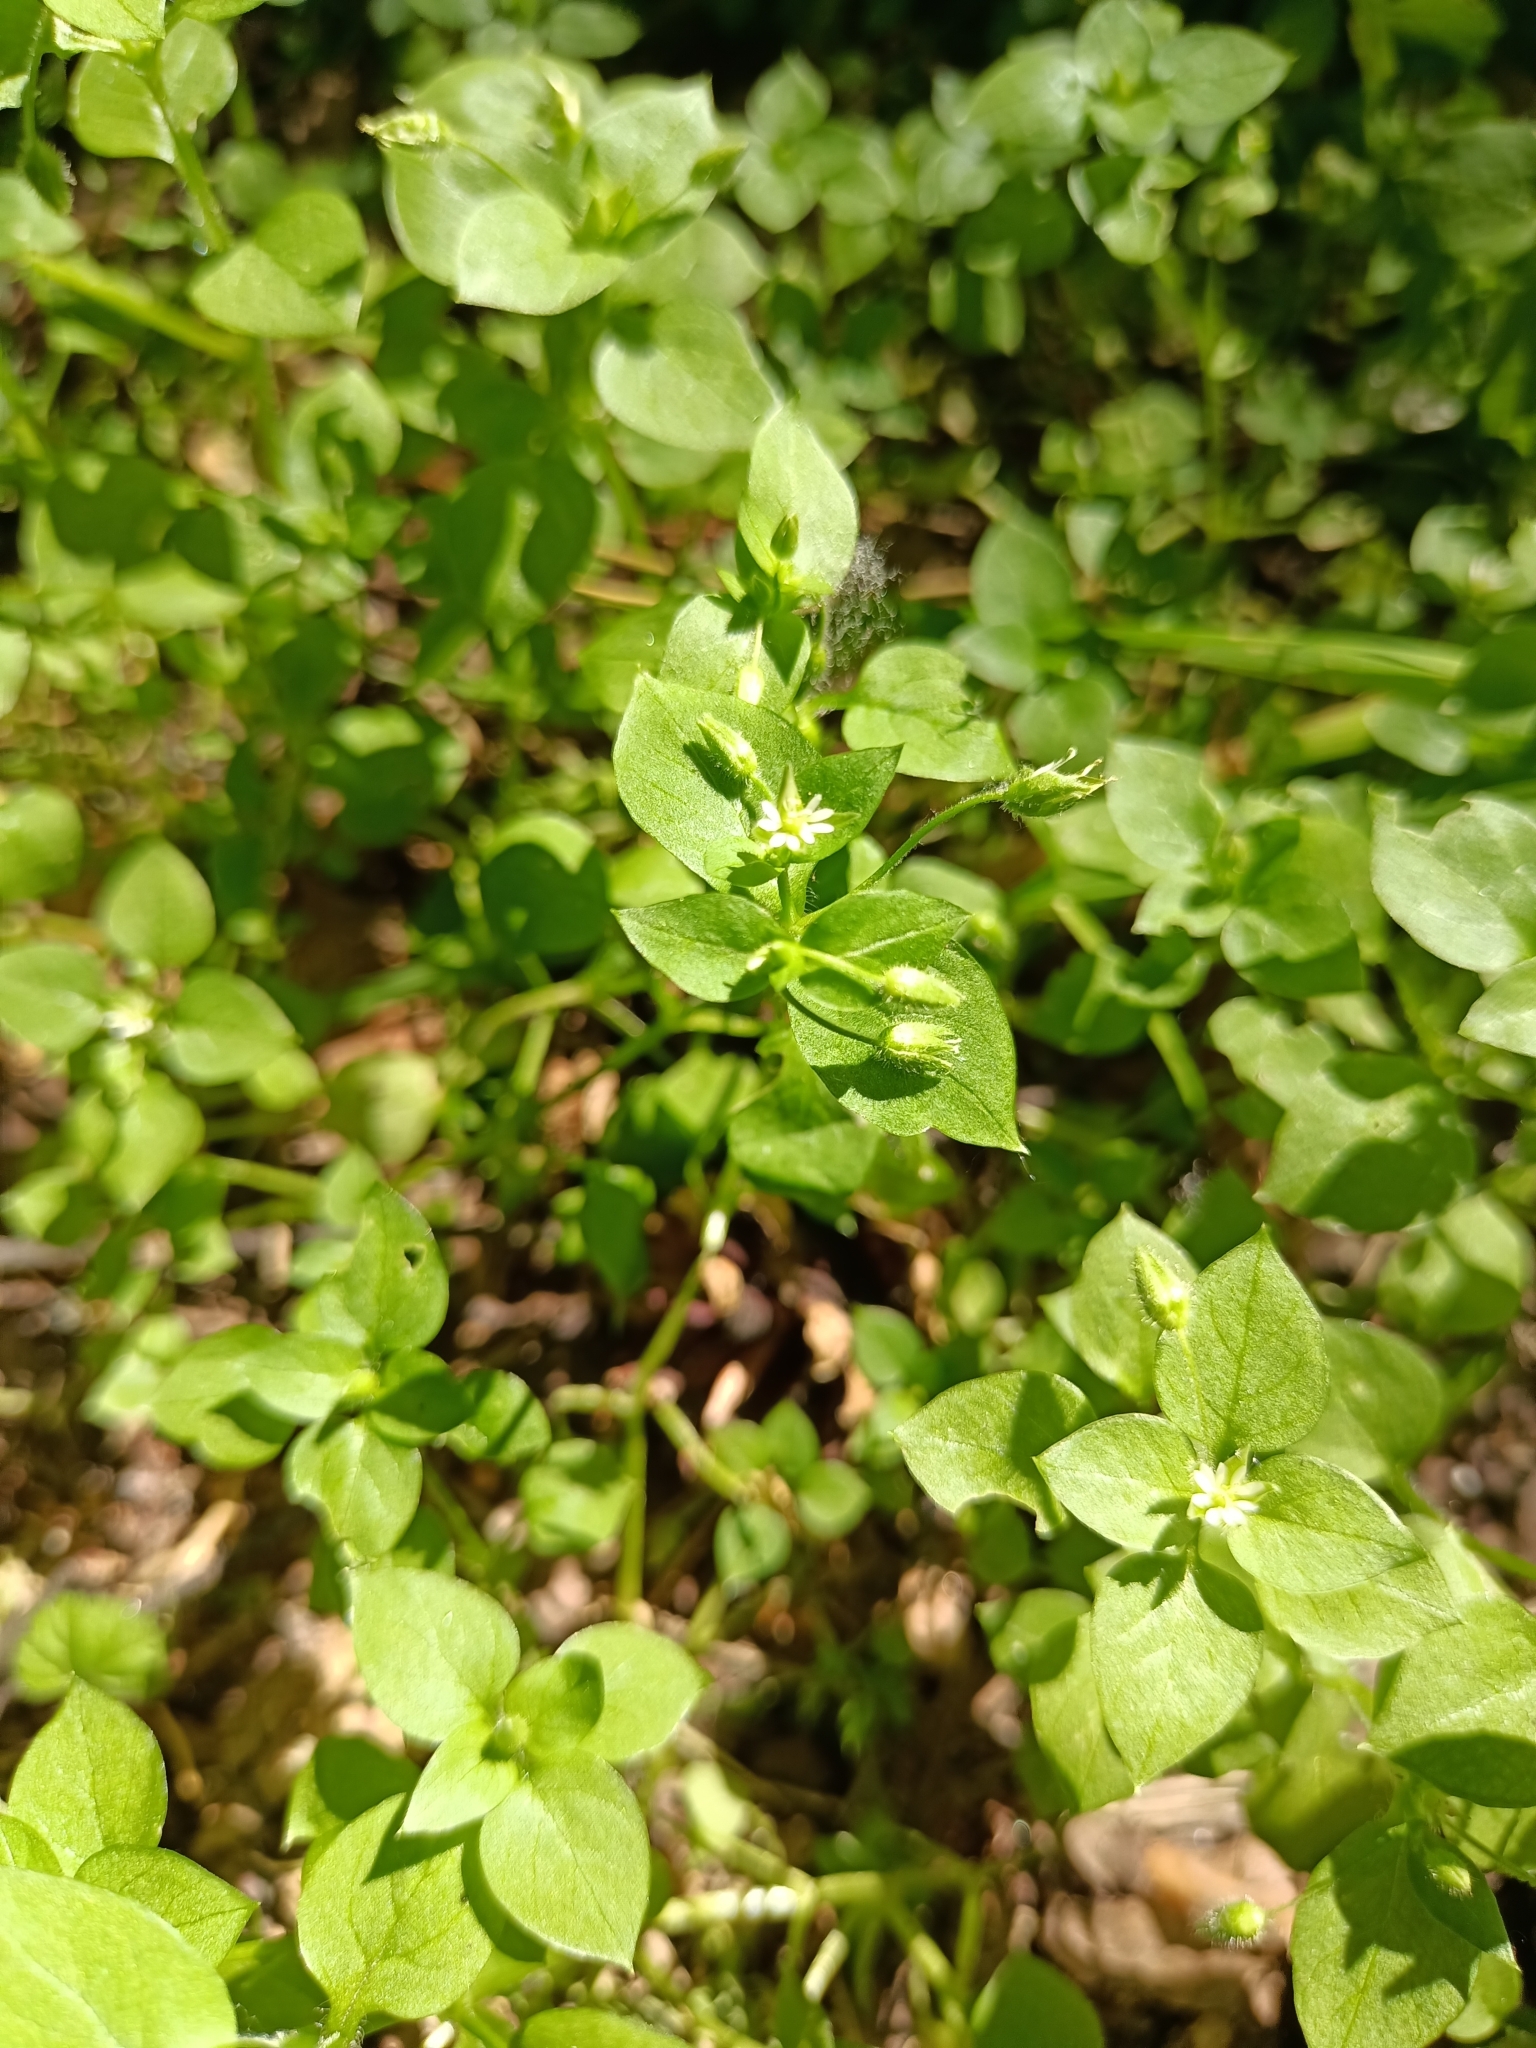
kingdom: Plantae
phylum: Tracheophyta
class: Magnoliopsida
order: Caryophyllales
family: Caryophyllaceae
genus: Stellaria
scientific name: Stellaria media
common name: Common chickweed
